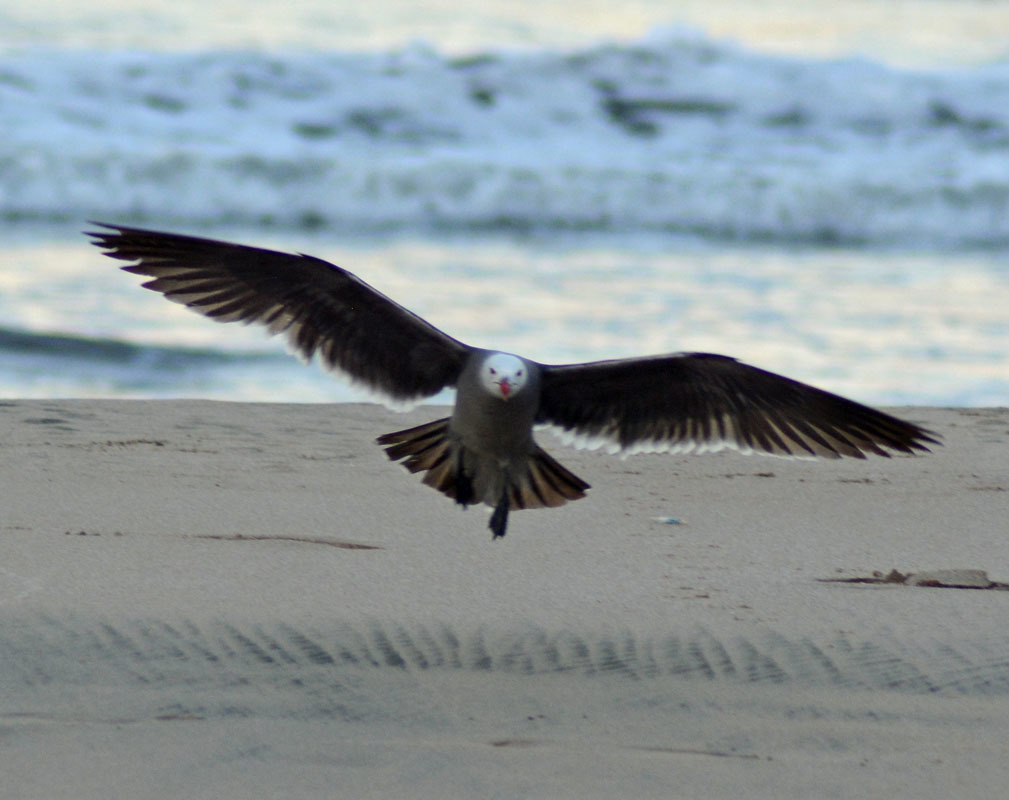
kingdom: Animalia
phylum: Chordata
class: Aves
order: Charadriiformes
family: Laridae
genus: Larus
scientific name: Larus heermanni
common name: Heermann's gull
